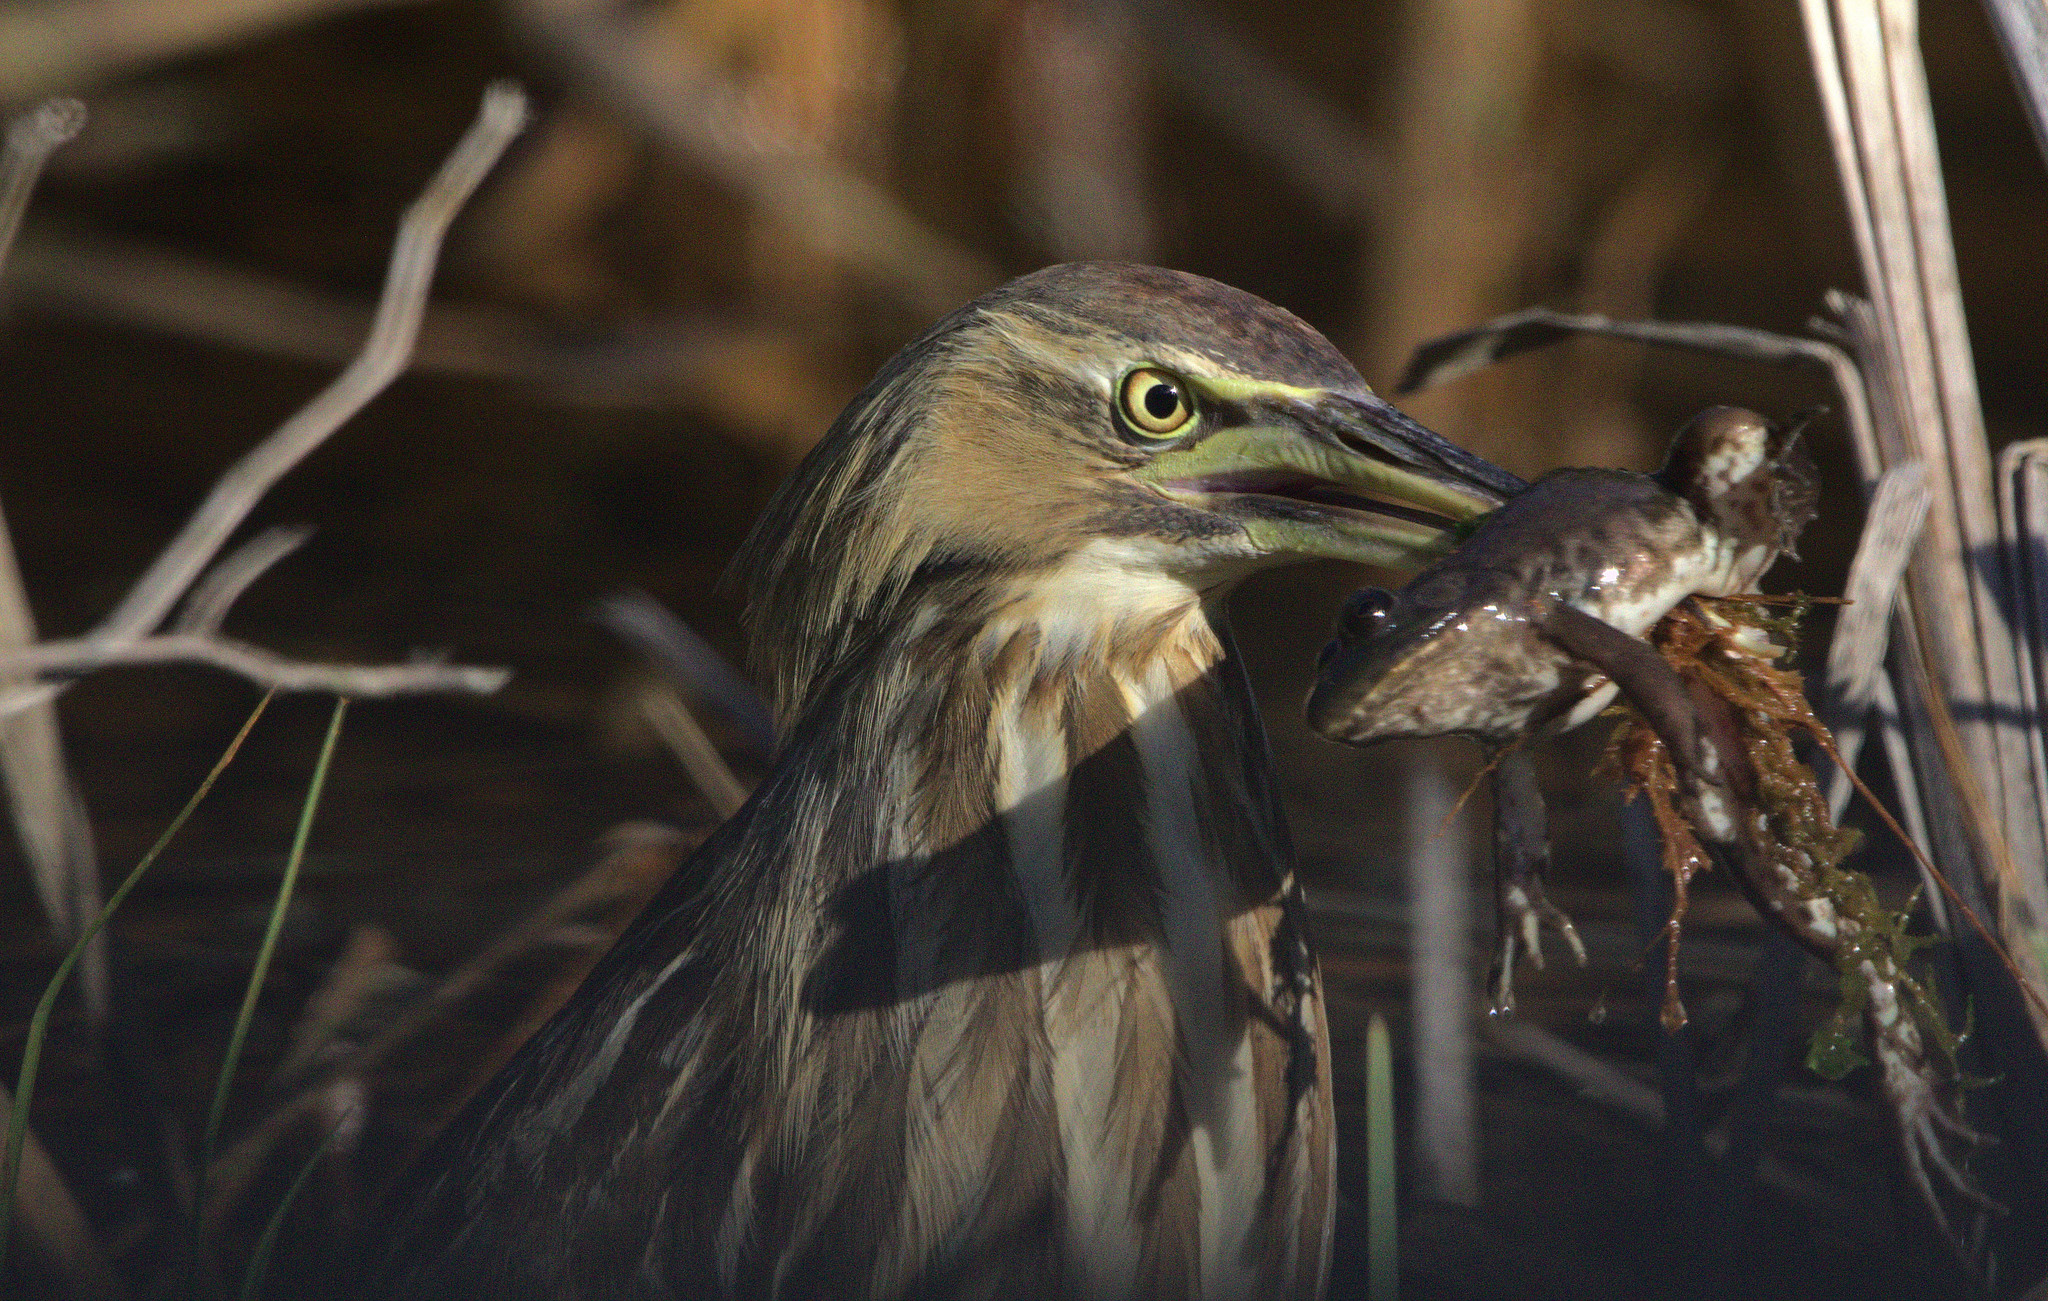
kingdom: Animalia
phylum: Chordata
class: Aves
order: Pelecaniformes
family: Ardeidae
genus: Botaurus
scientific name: Botaurus lentiginosus
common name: American bittern
